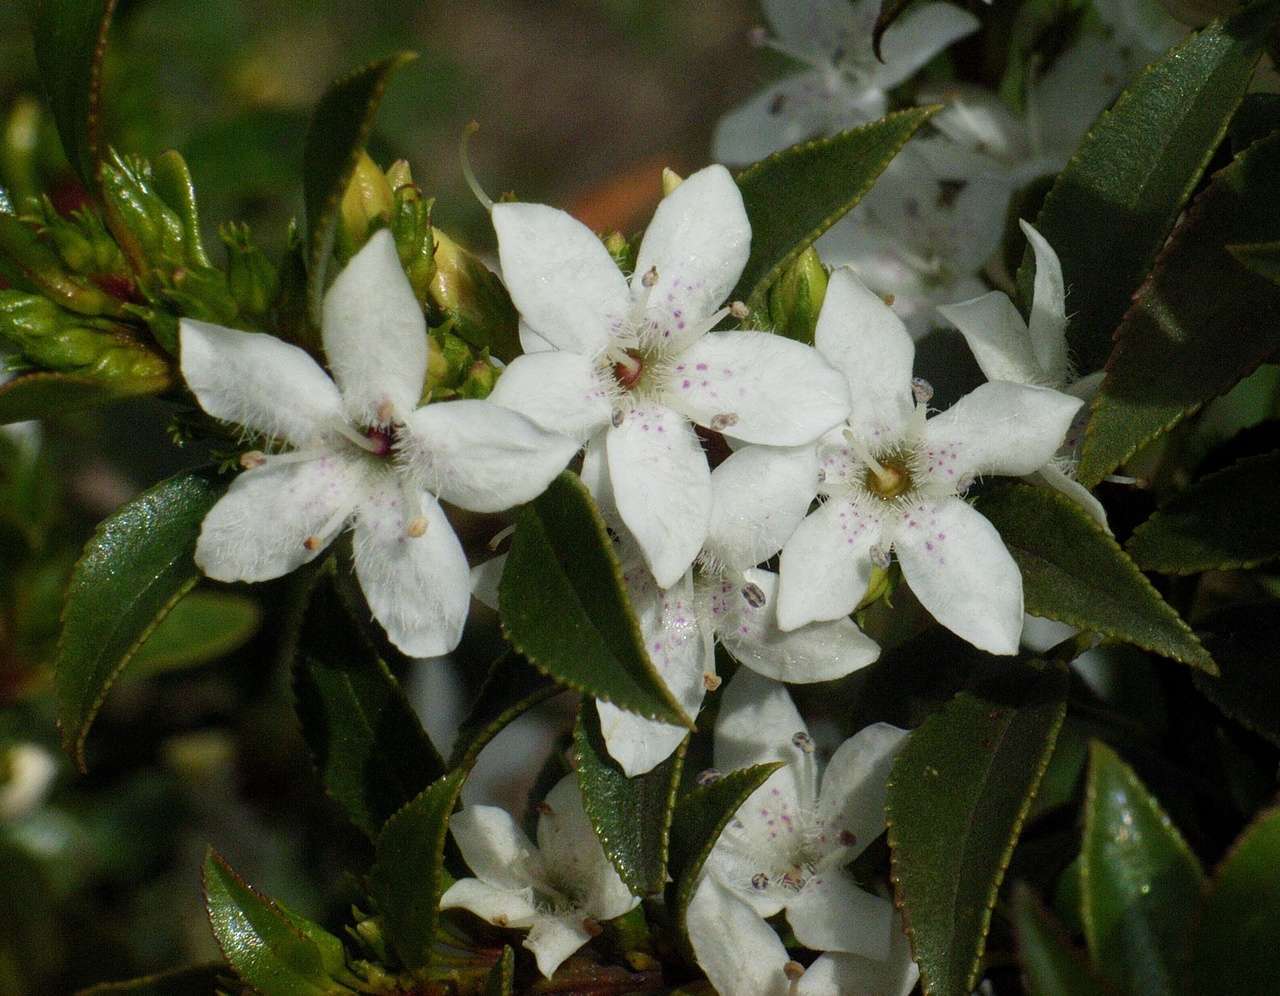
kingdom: Plantae
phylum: Tracheophyta
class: Magnoliopsida
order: Lamiales
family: Scrophulariaceae
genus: Myoporum
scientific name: Myoporum petiolatum
